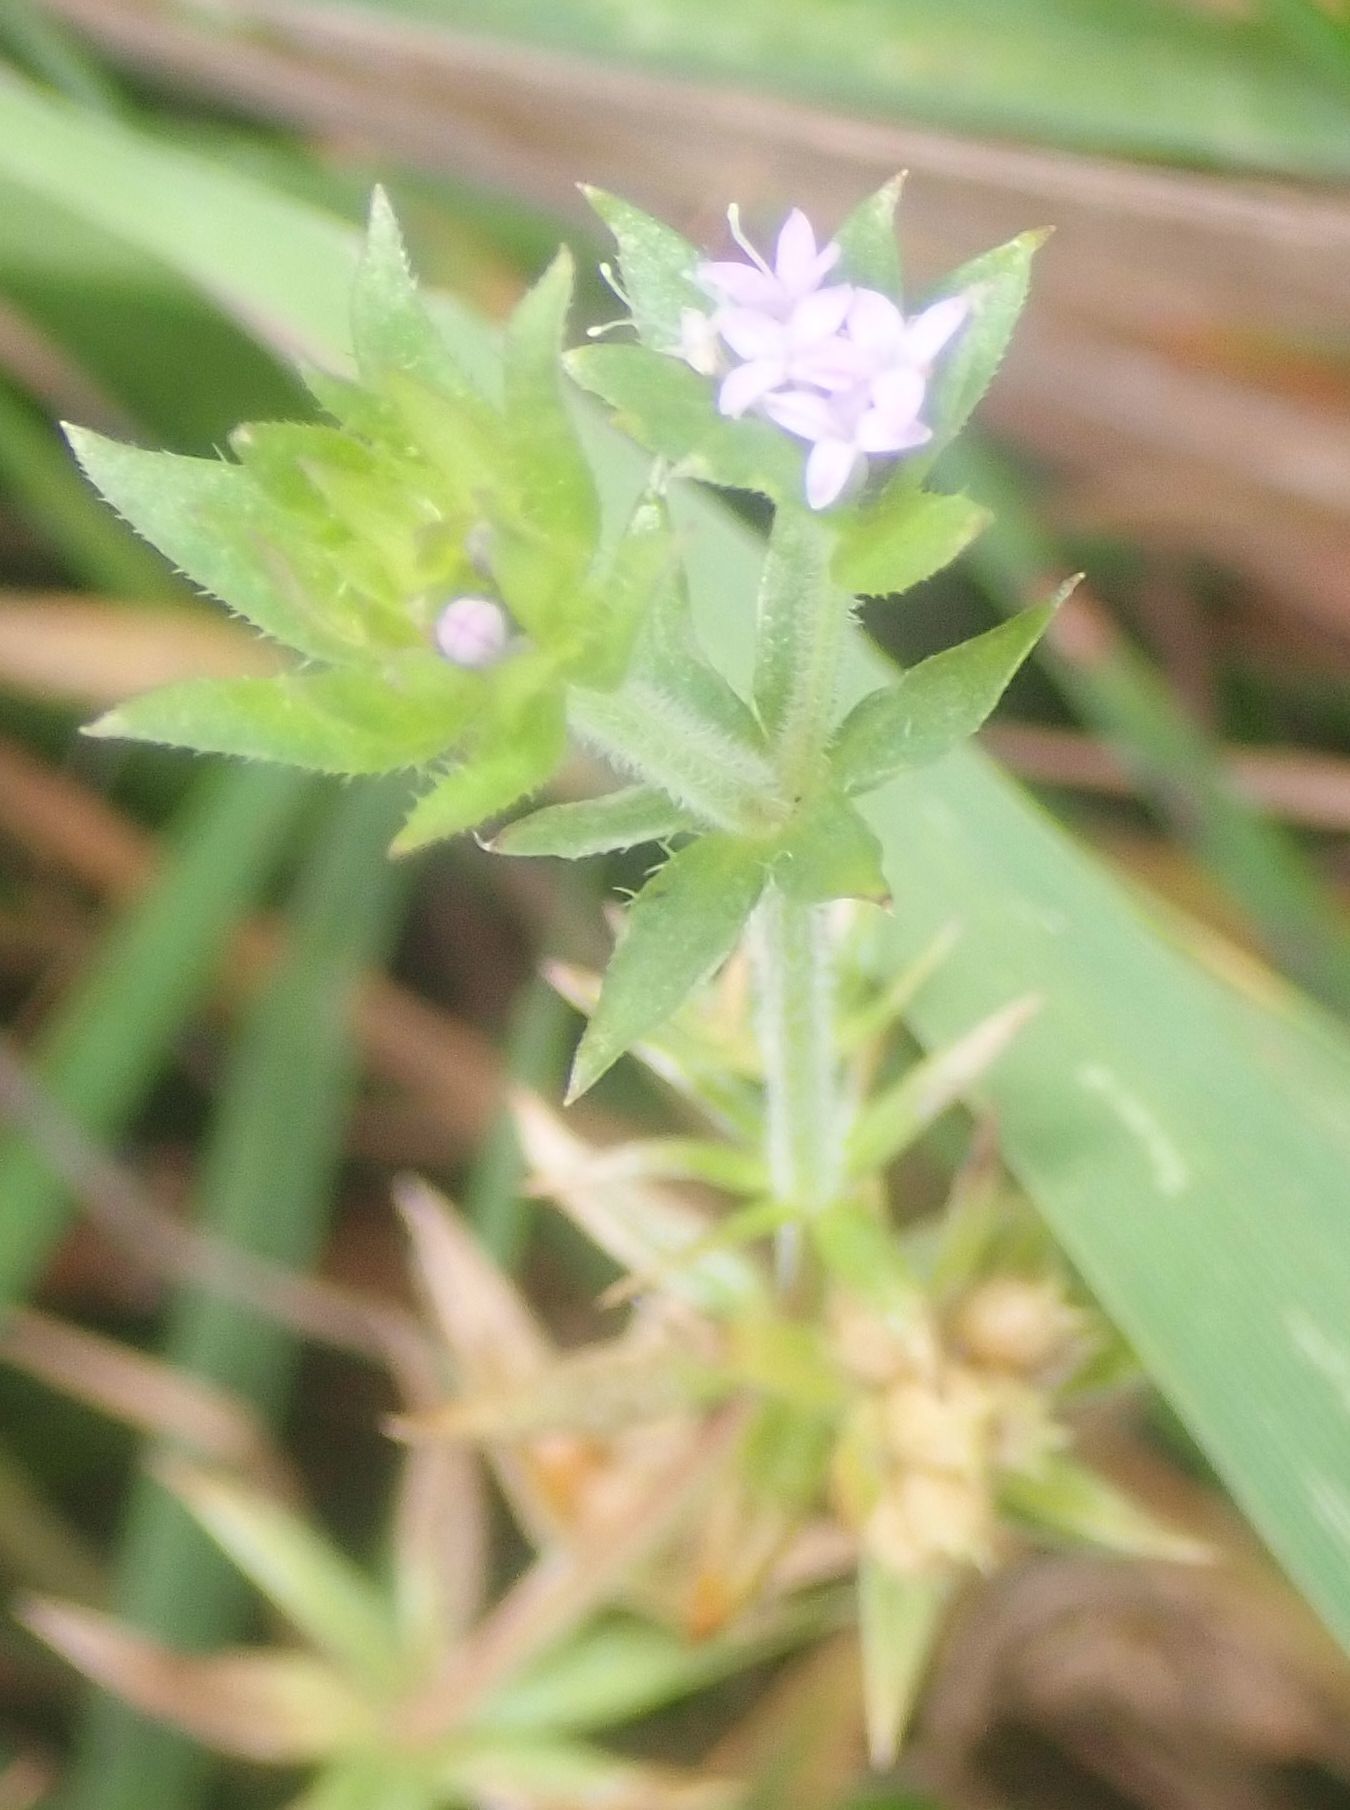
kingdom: Plantae
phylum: Tracheophyta
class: Magnoliopsida
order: Gentianales
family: Rubiaceae
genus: Sherardia
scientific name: Sherardia arvensis
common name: Field madder
